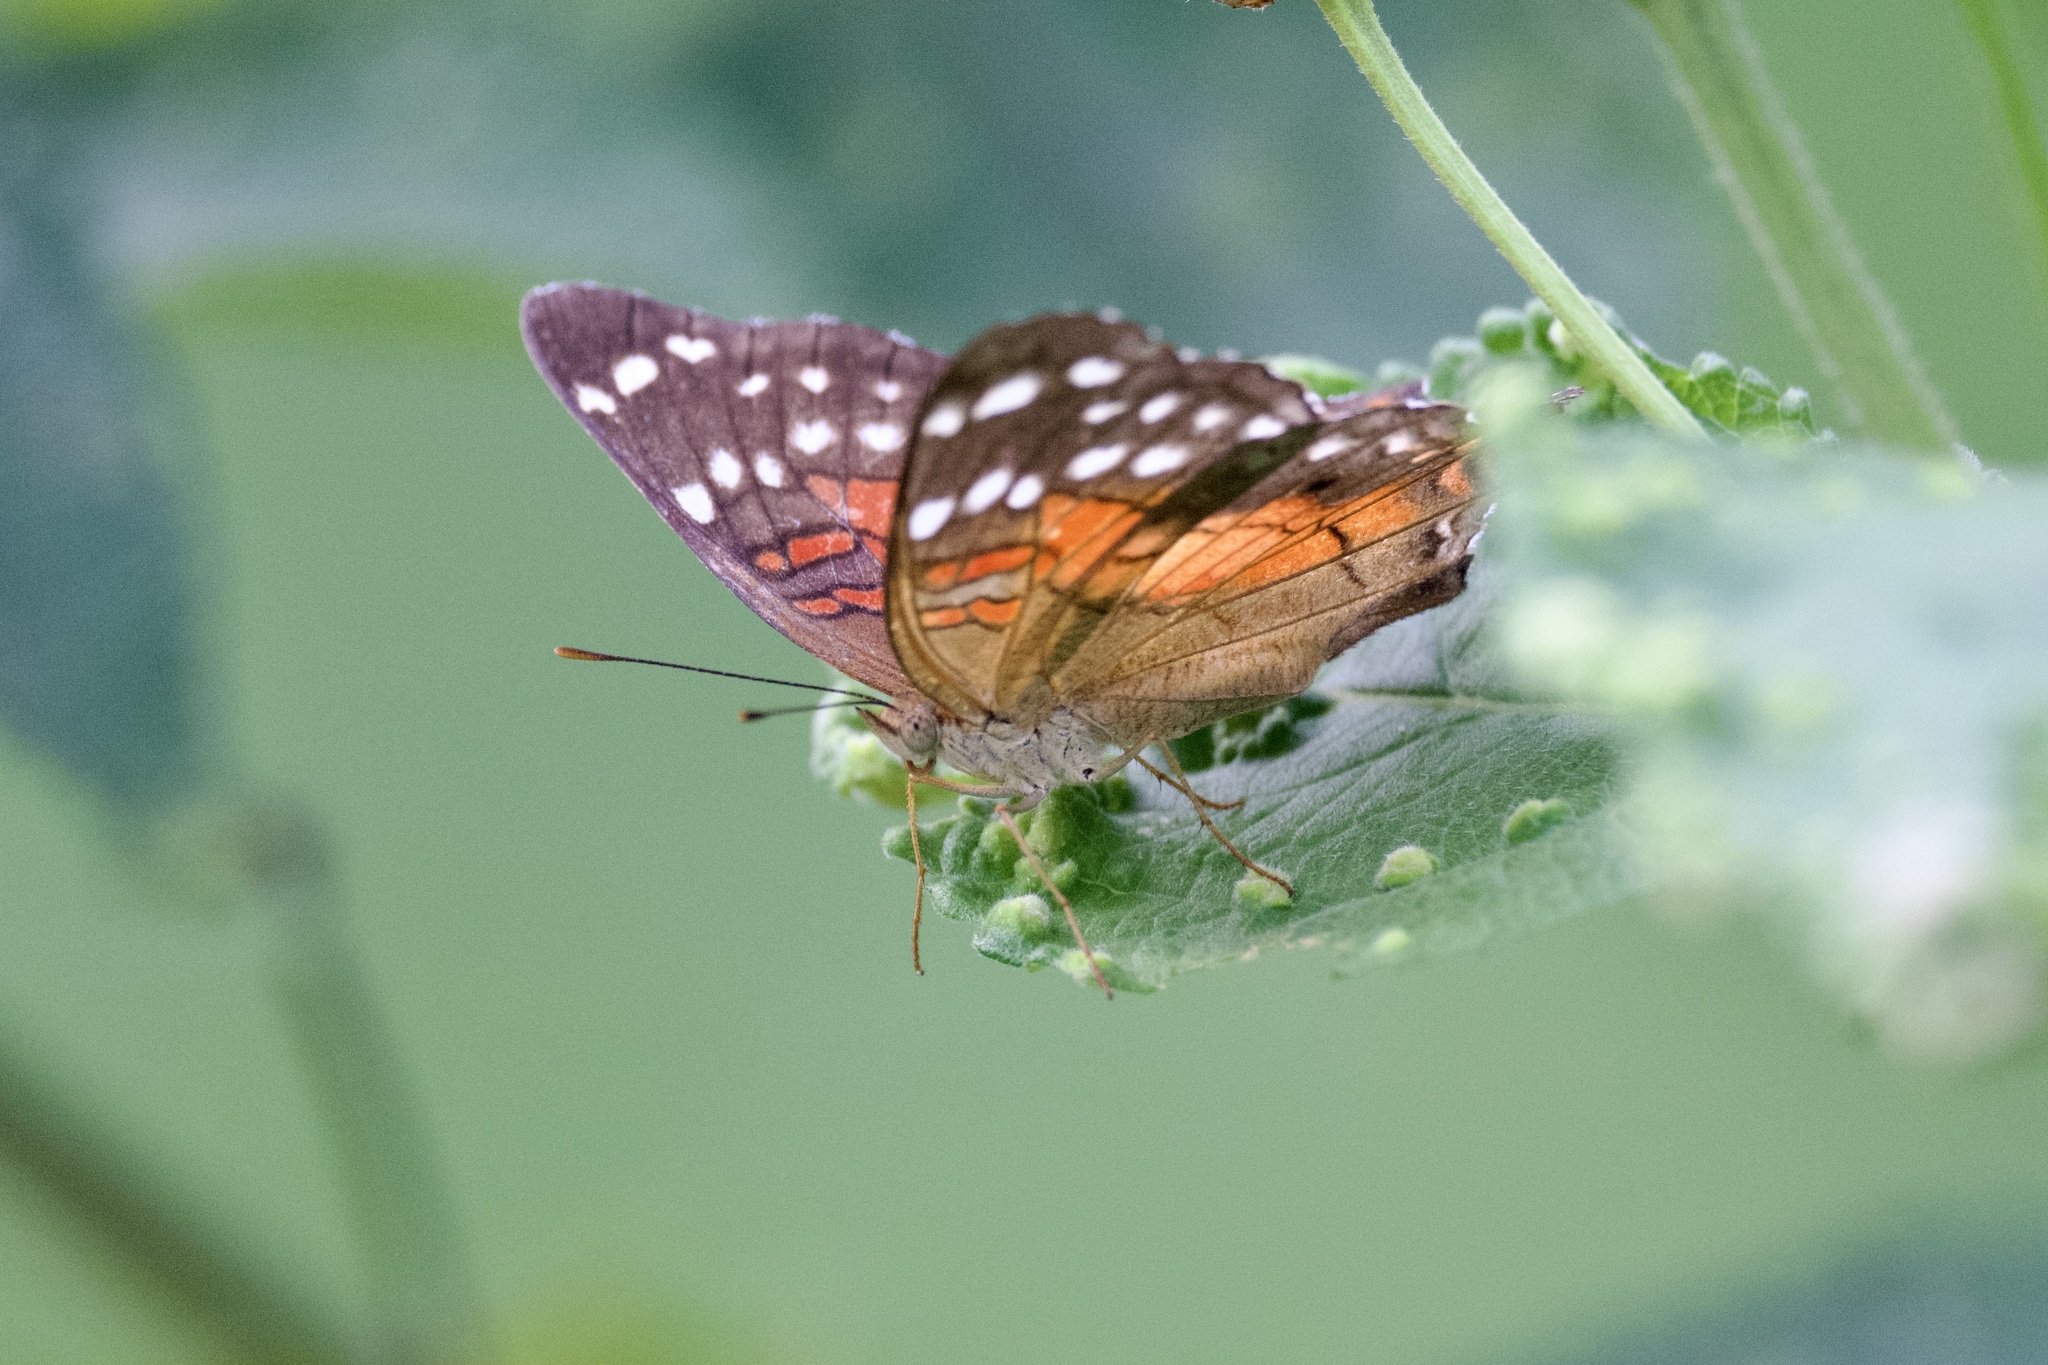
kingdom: Animalia
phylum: Arthropoda
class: Insecta
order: Lepidoptera
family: Nymphalidae
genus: Anartia
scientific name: Anartia amathea
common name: Red peacock
